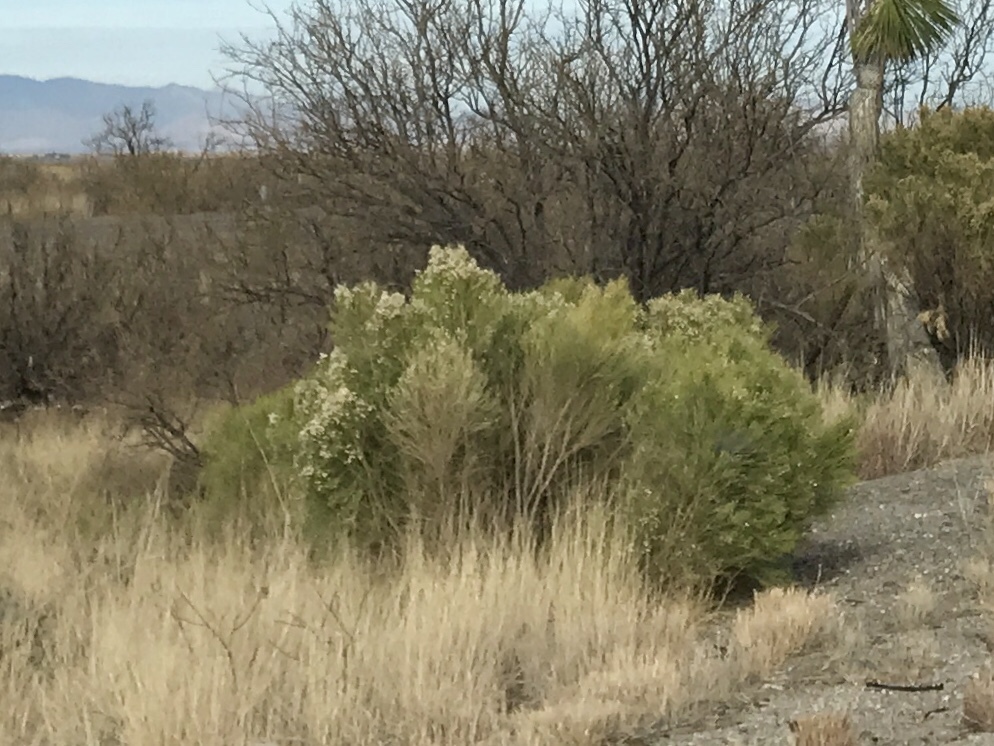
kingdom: Plantae
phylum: Tracheophyta
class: Magnoliopsida
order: Asterales
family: Asteraceae
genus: Baccharis
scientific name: Baccharis sarothroides
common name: Desert-broom
